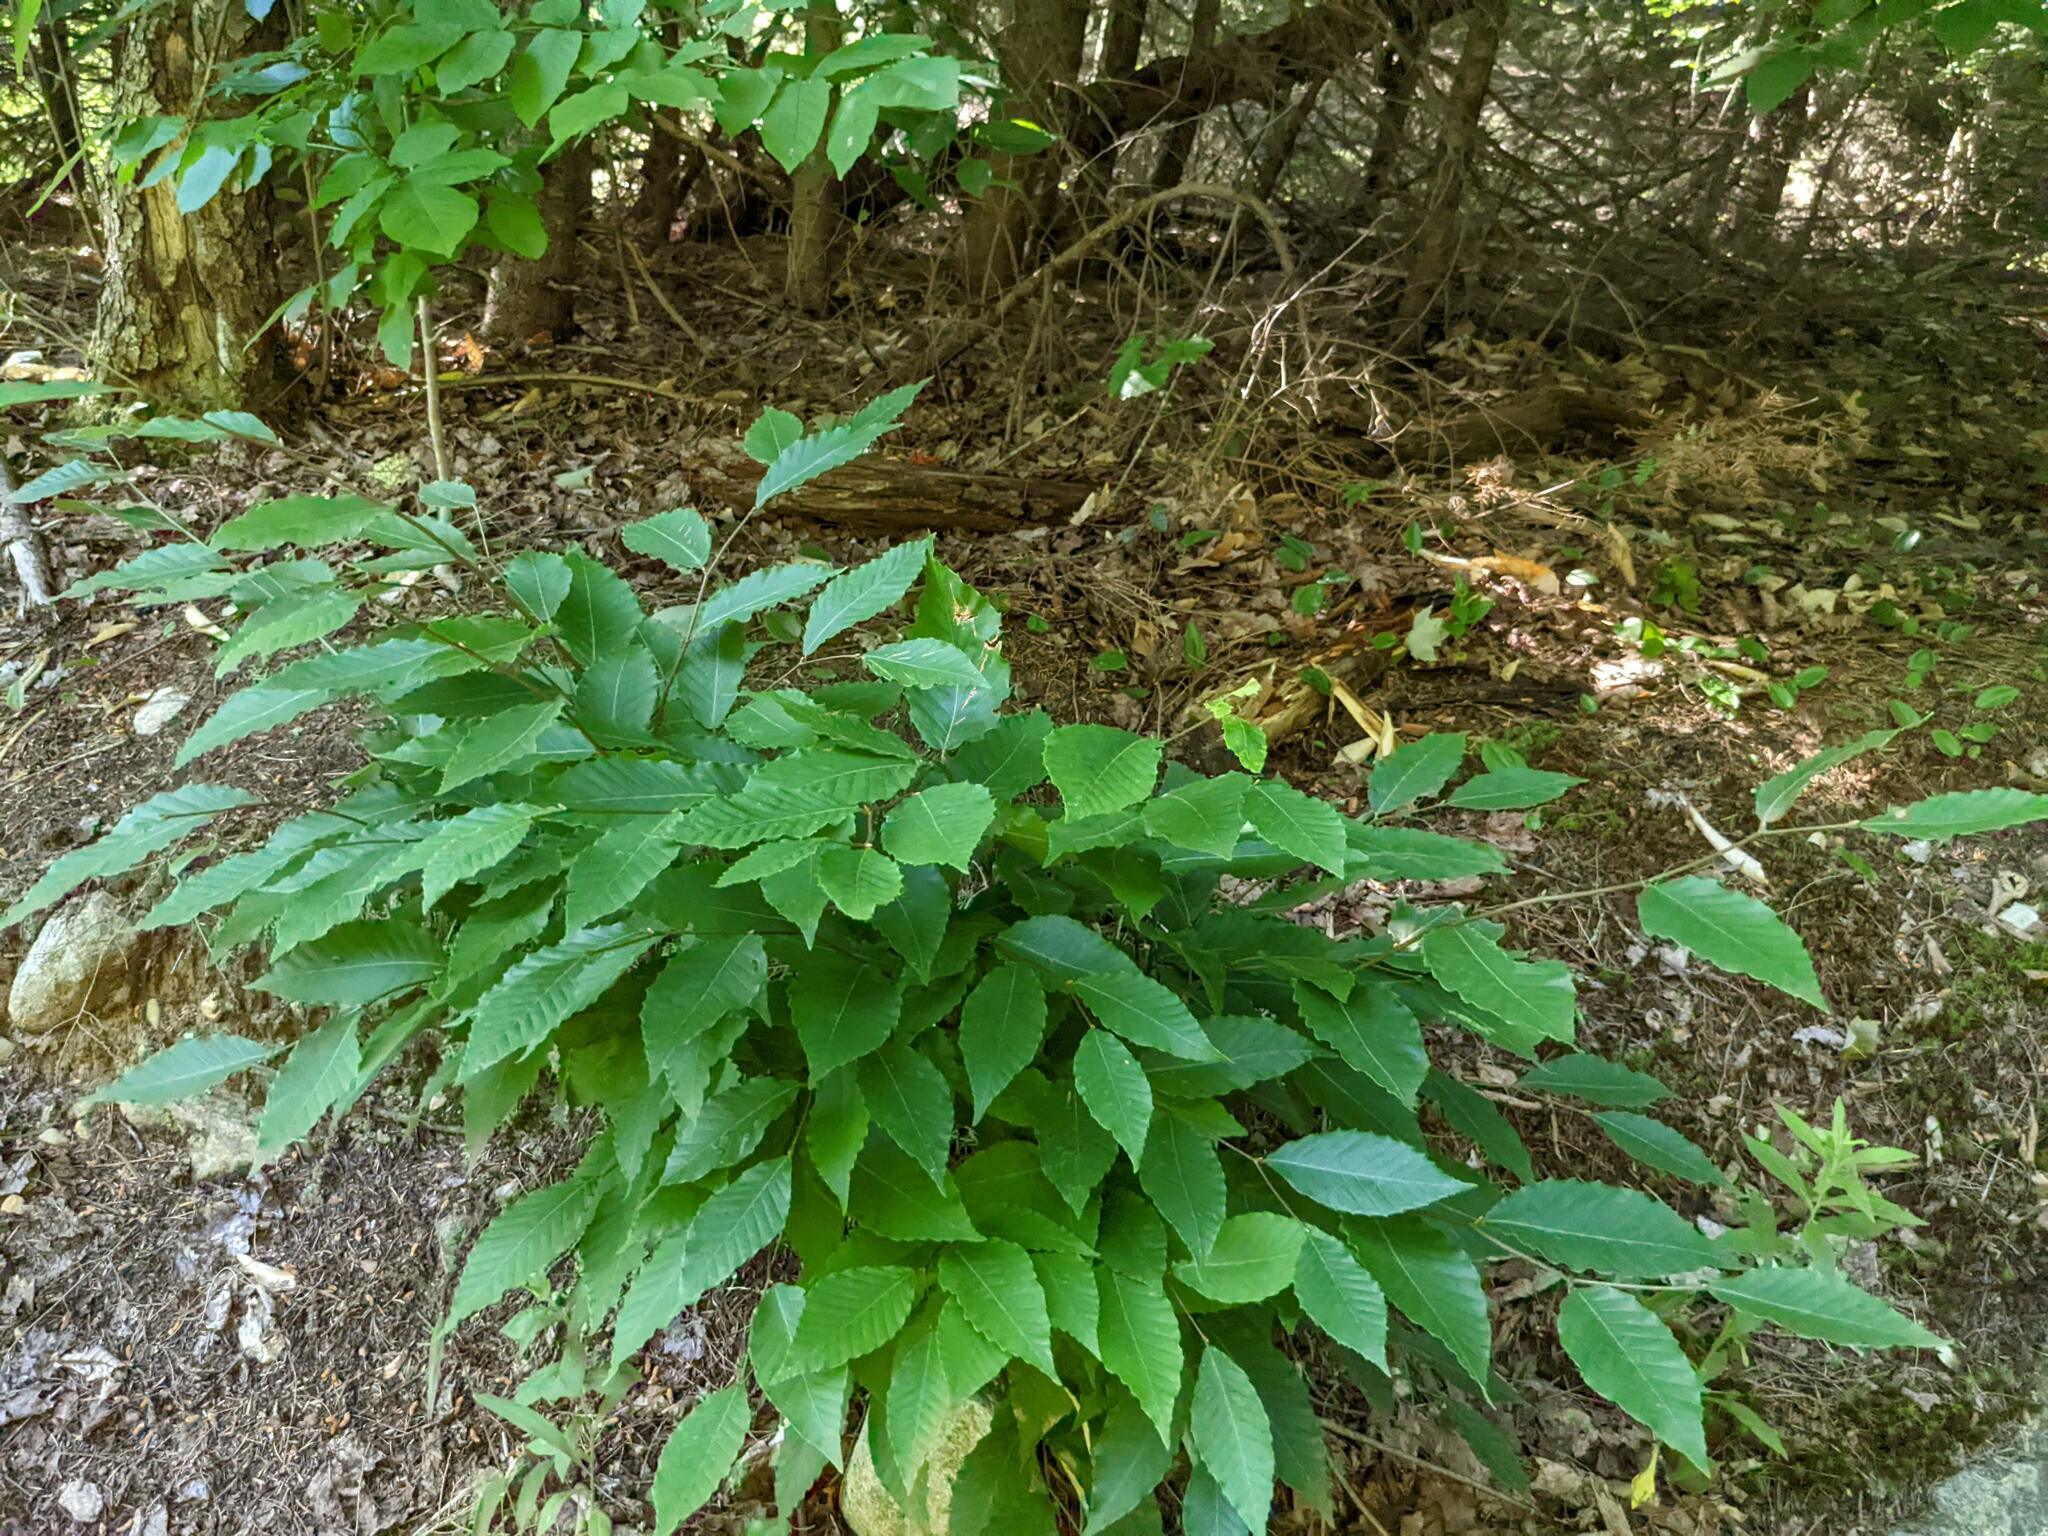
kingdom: Plantae
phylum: Tracheophyta
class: Magnoliopsida
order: Fagales
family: Fagaceae
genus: Fagus
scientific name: Fagus grandifolia
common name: American beech
